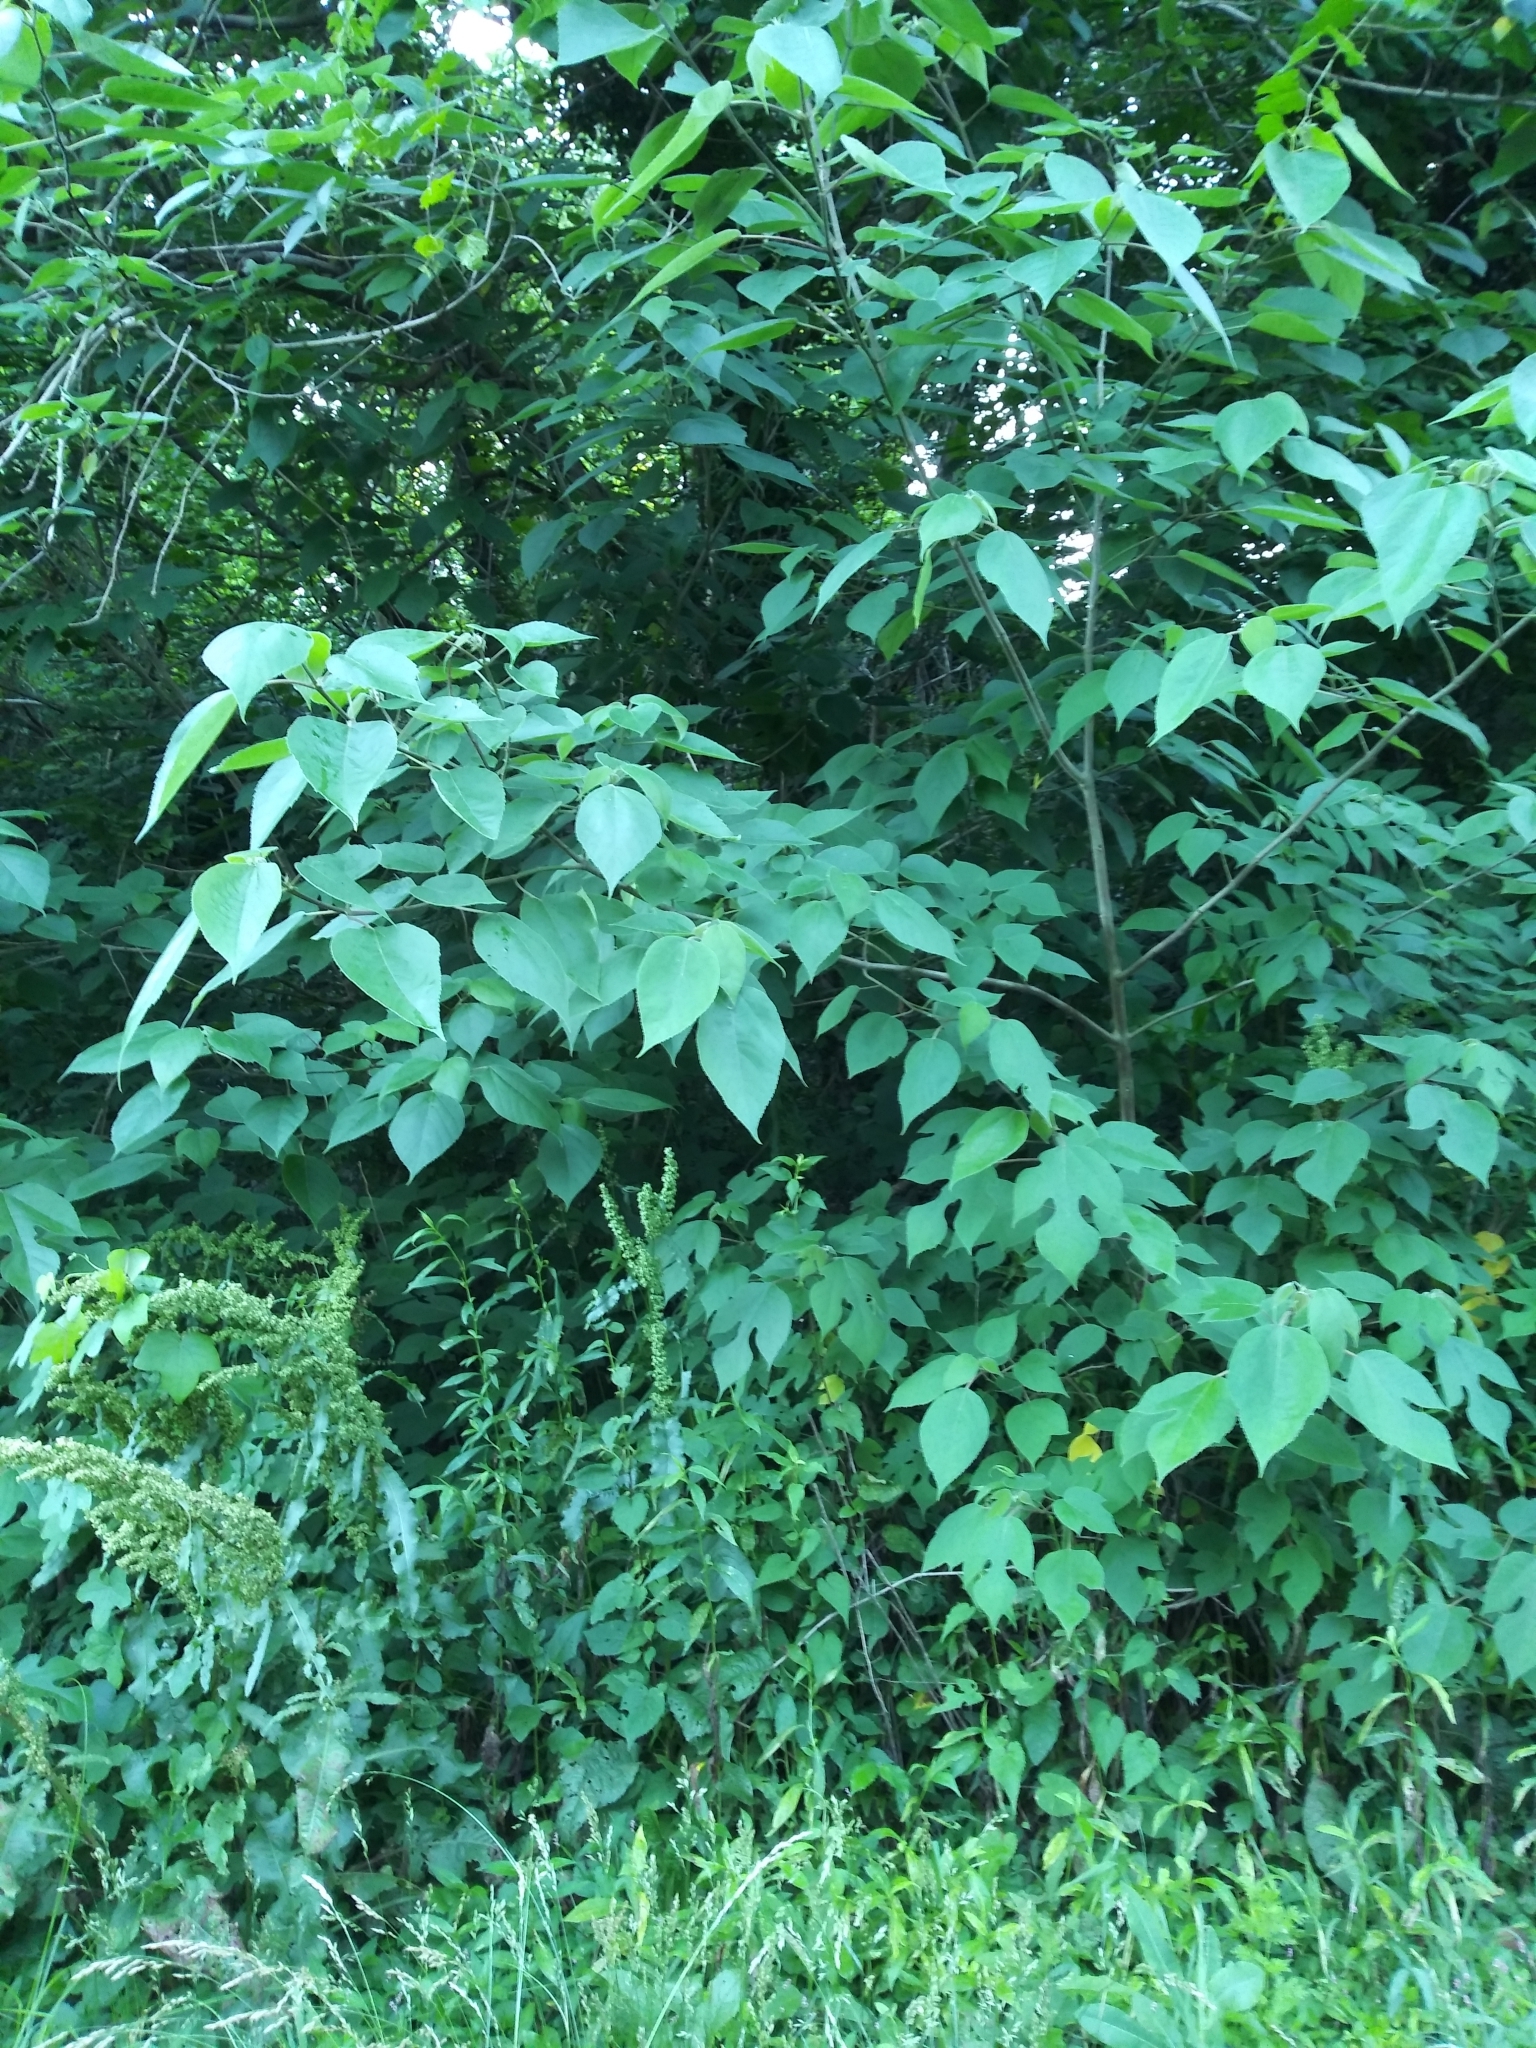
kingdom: Plantae
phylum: Tracheophyta
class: Magnoliopsida
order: Rosales
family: Moraceae
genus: Broussonetia
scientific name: Broussonetia papyrifera
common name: Paper mulberry
